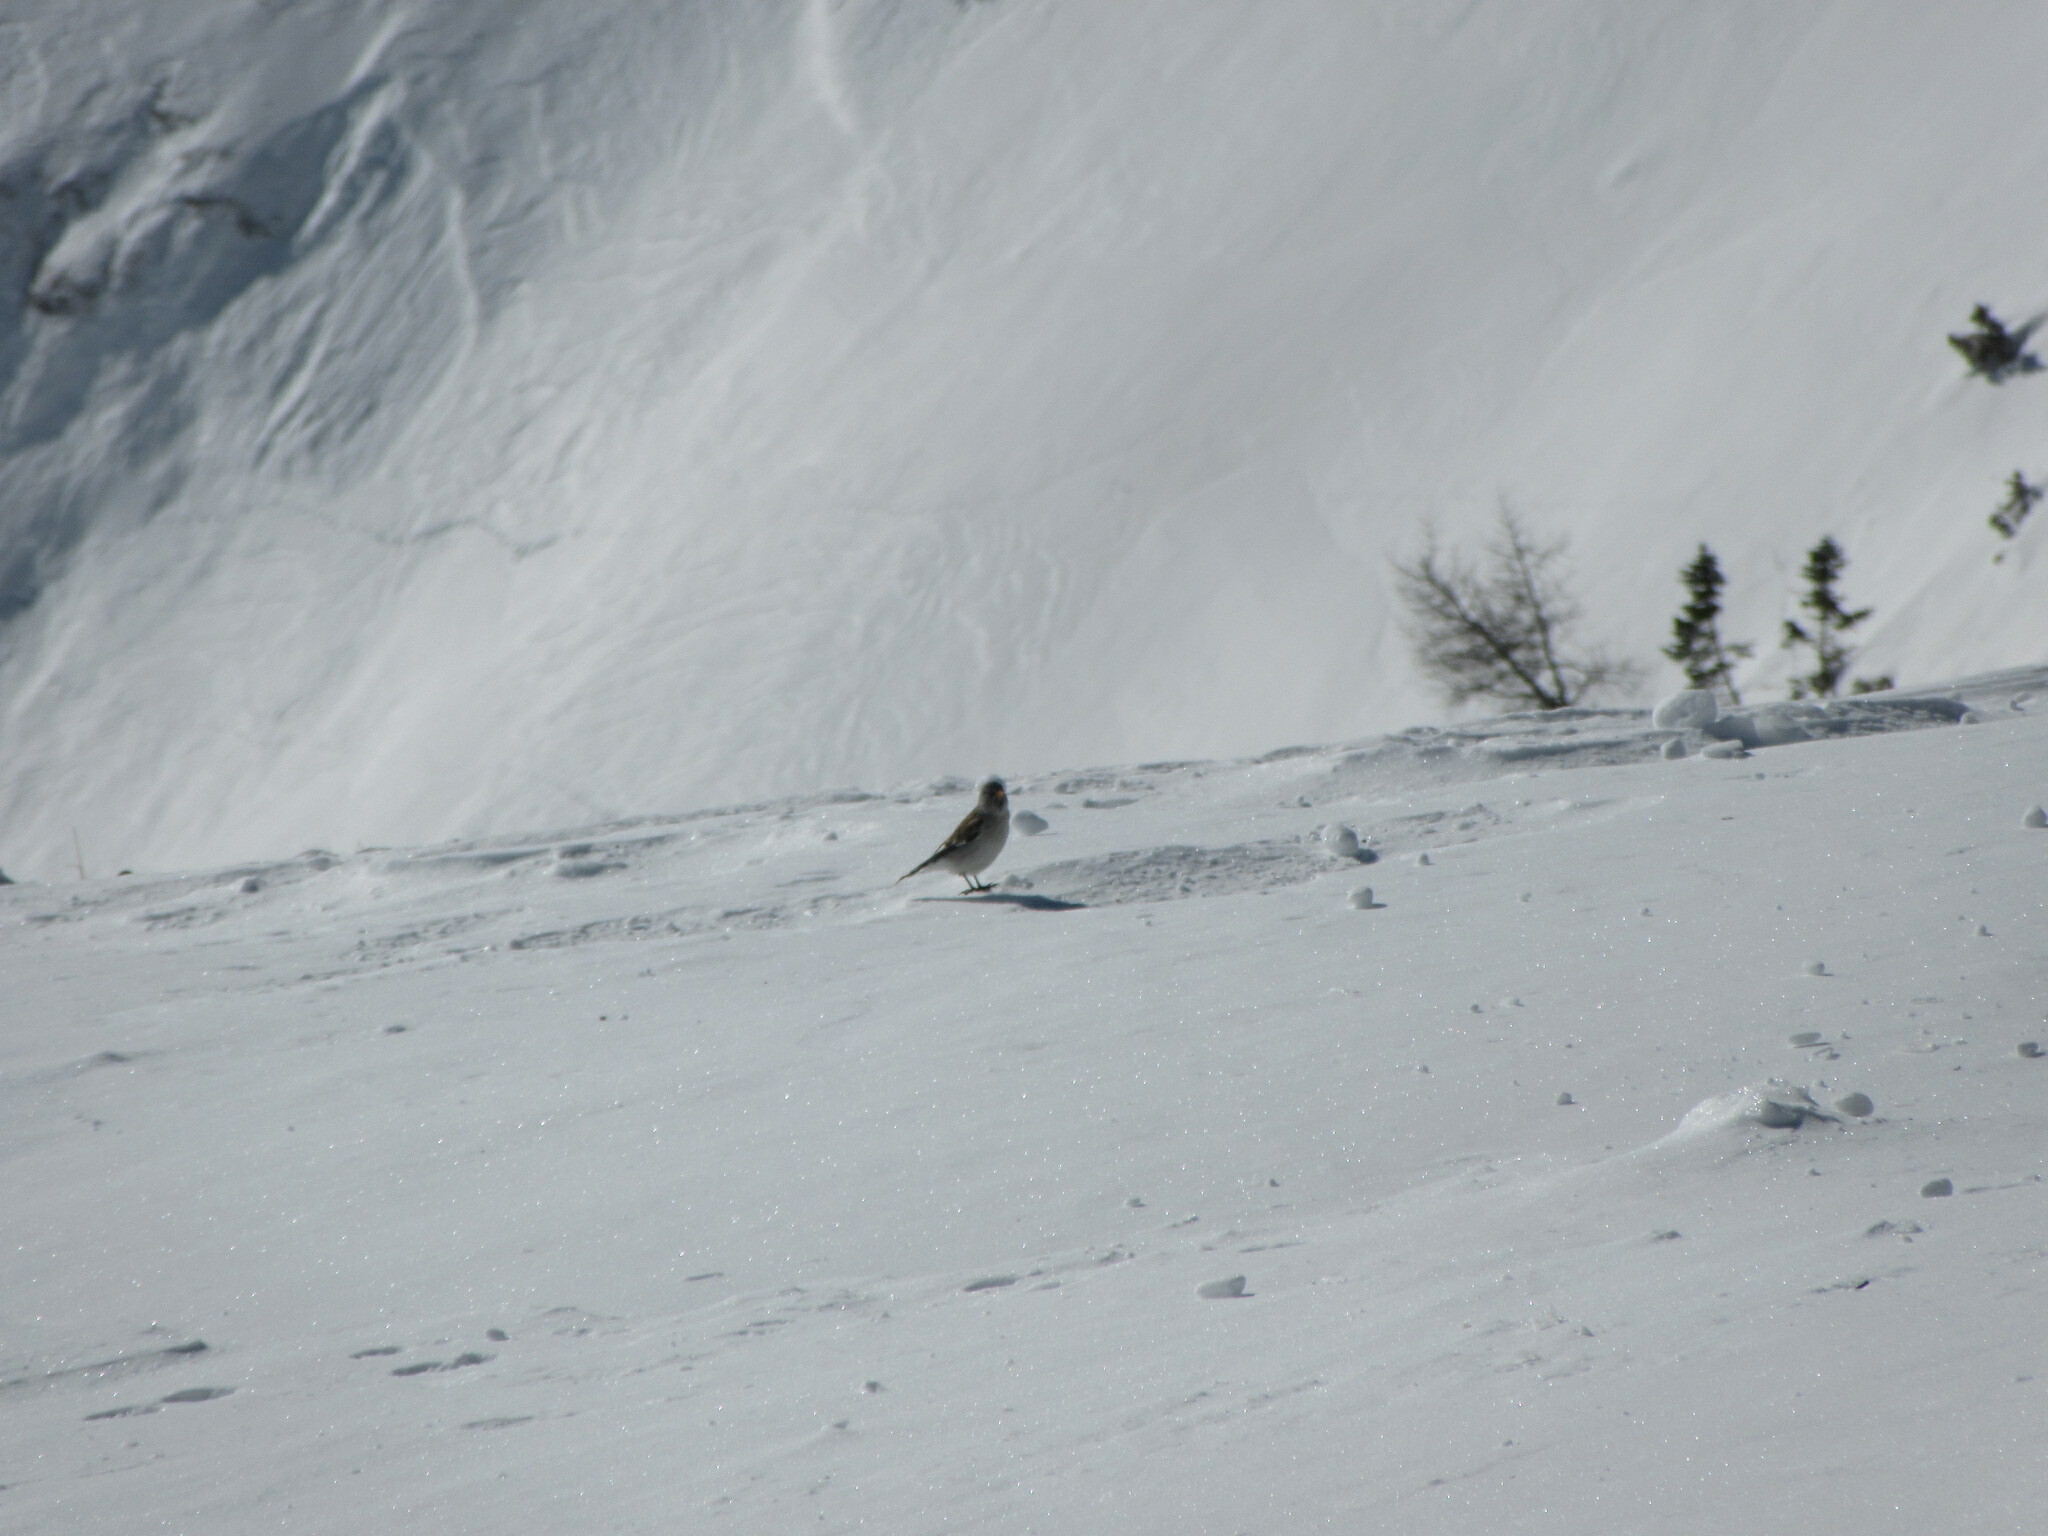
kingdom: Animalia
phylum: Chordata
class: Aves
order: Passeriformes
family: Passeridae
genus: Montifringilla
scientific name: Montifringilla nivalis
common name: White-winged snowfinch
